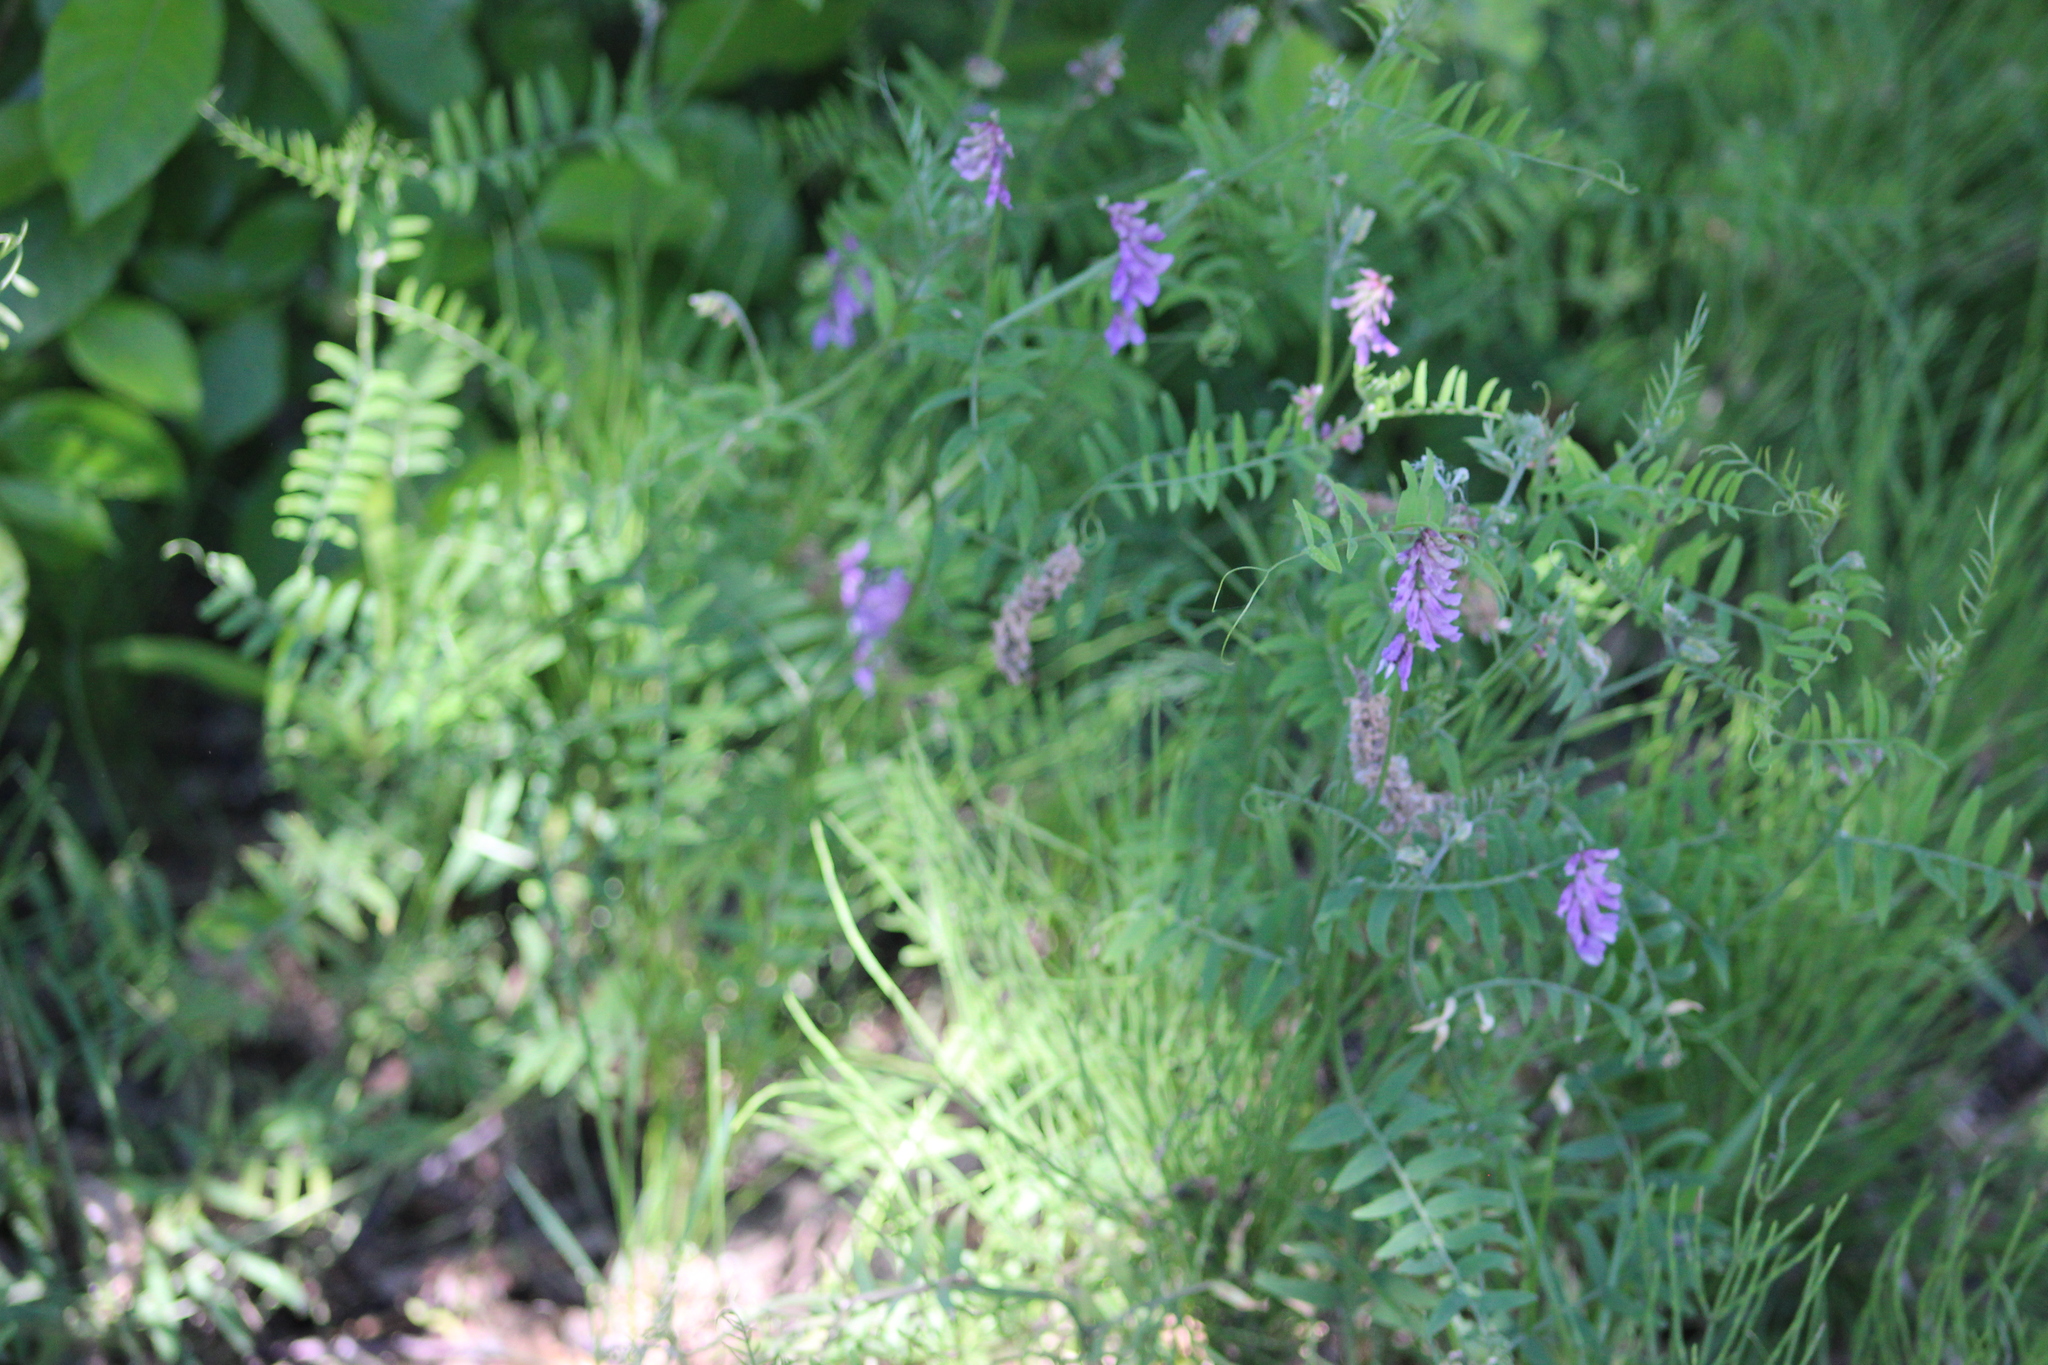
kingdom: Plantae
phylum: Tracheophyta
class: Magnoliopsida
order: Fabales
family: Fabaceae
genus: Vicia
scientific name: Vicia cracca
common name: Bird vetch
